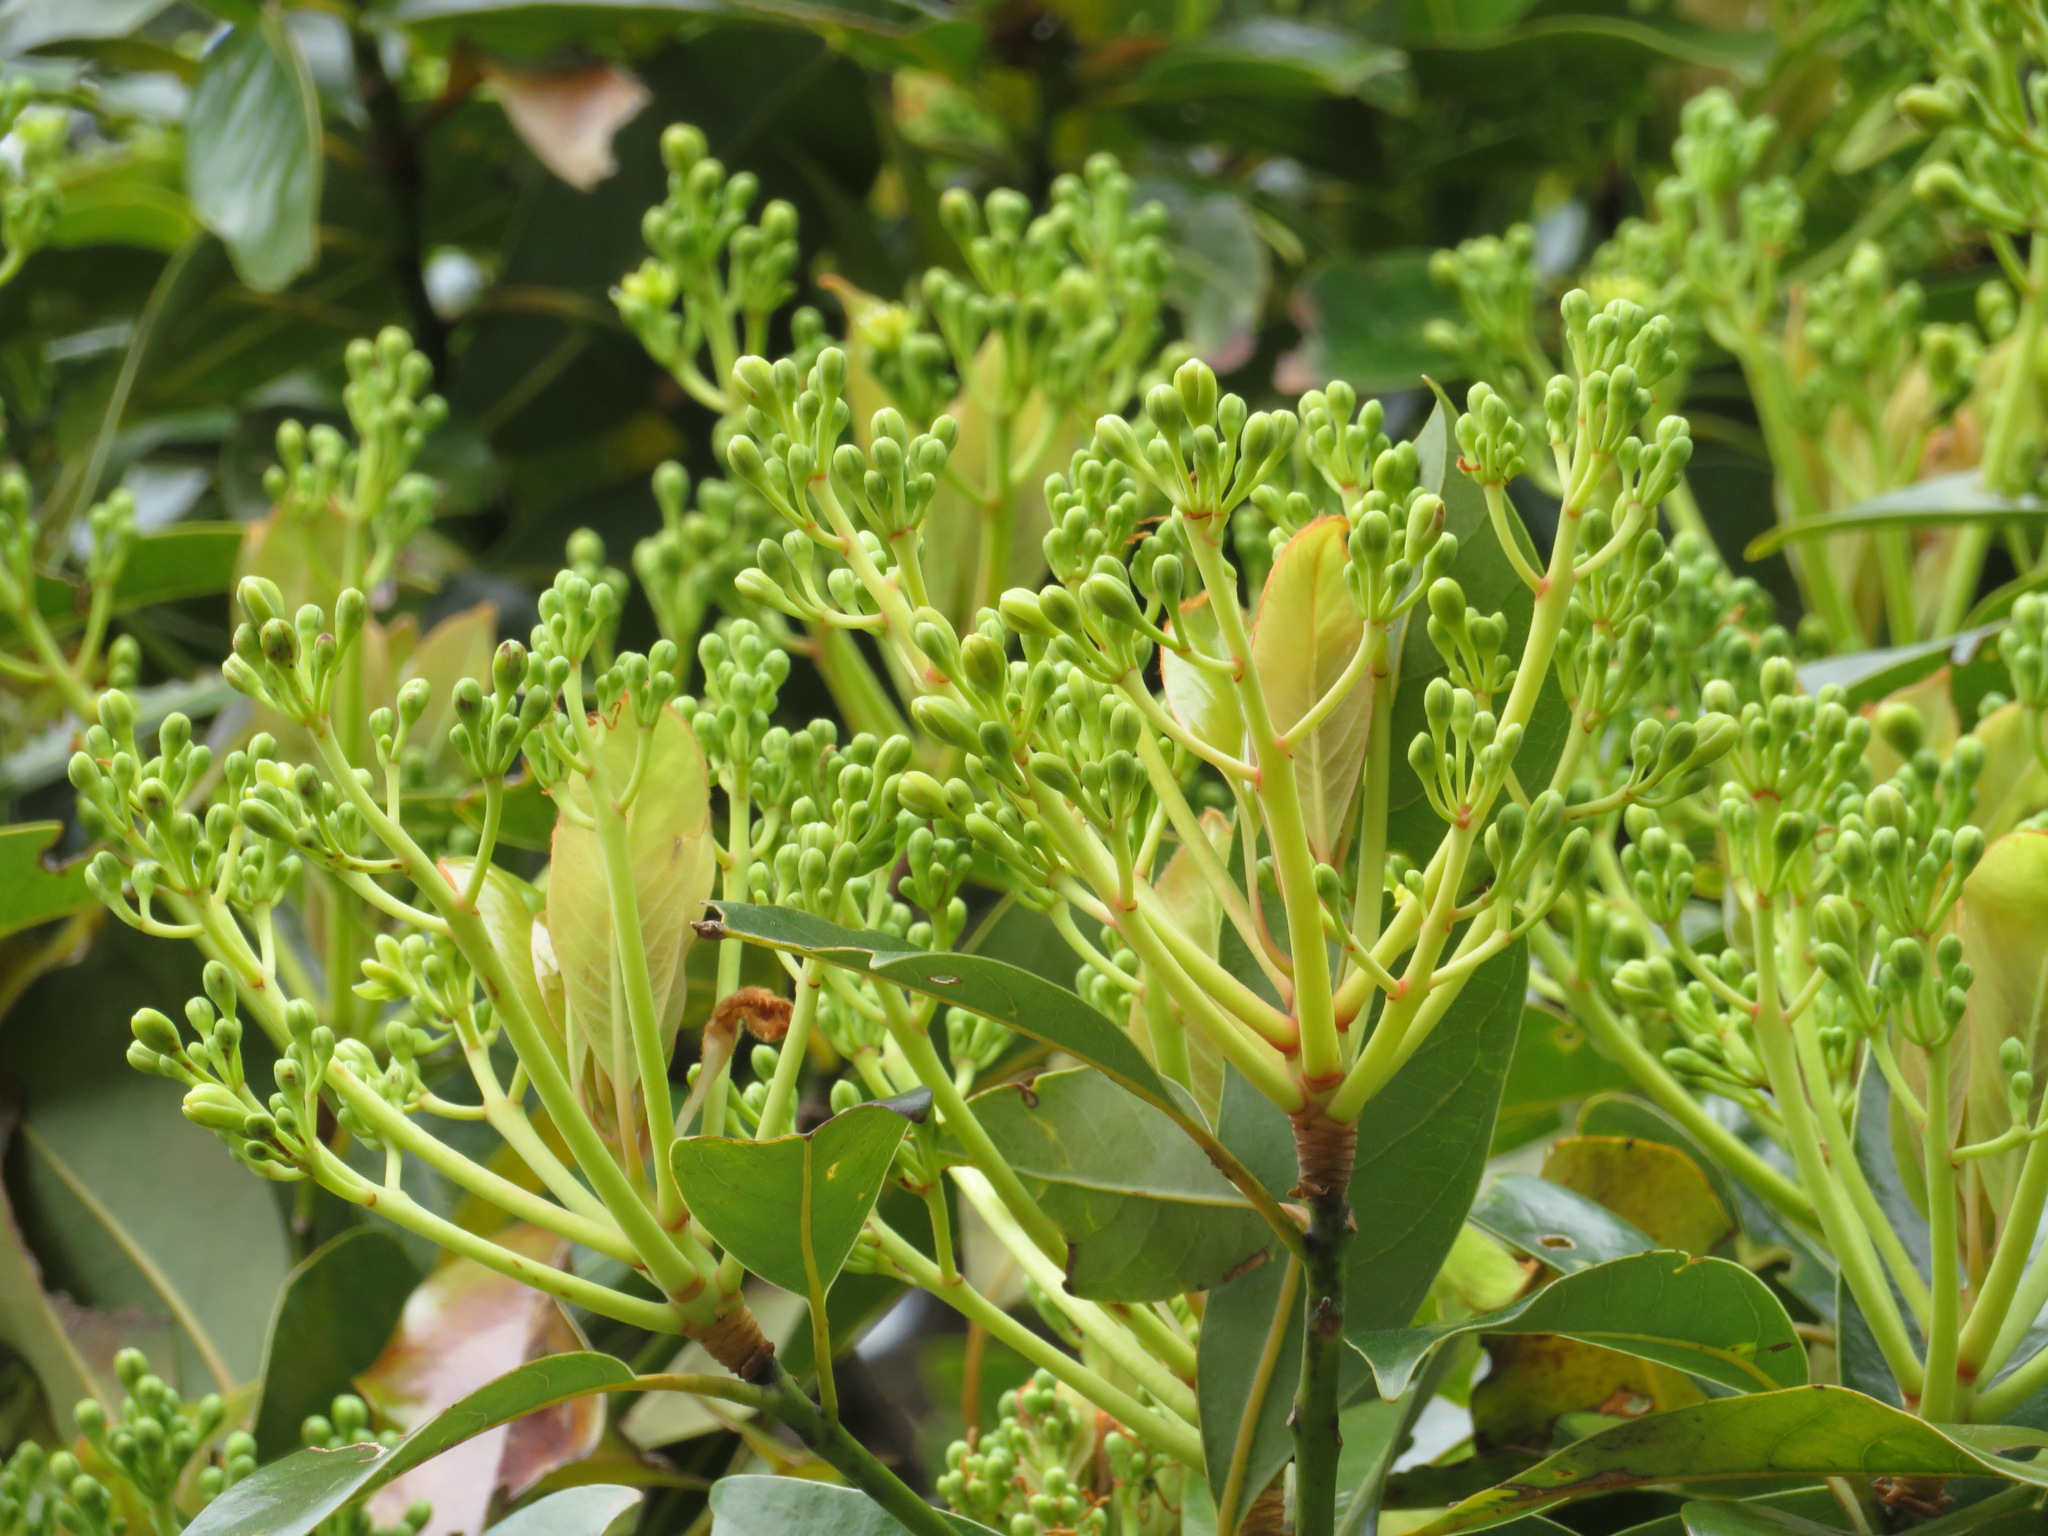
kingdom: Plantae
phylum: Tracheophyta
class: Magnoliopsida
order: Laurales
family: Lauraceae
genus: Machilus
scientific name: Machilus thunbergii
